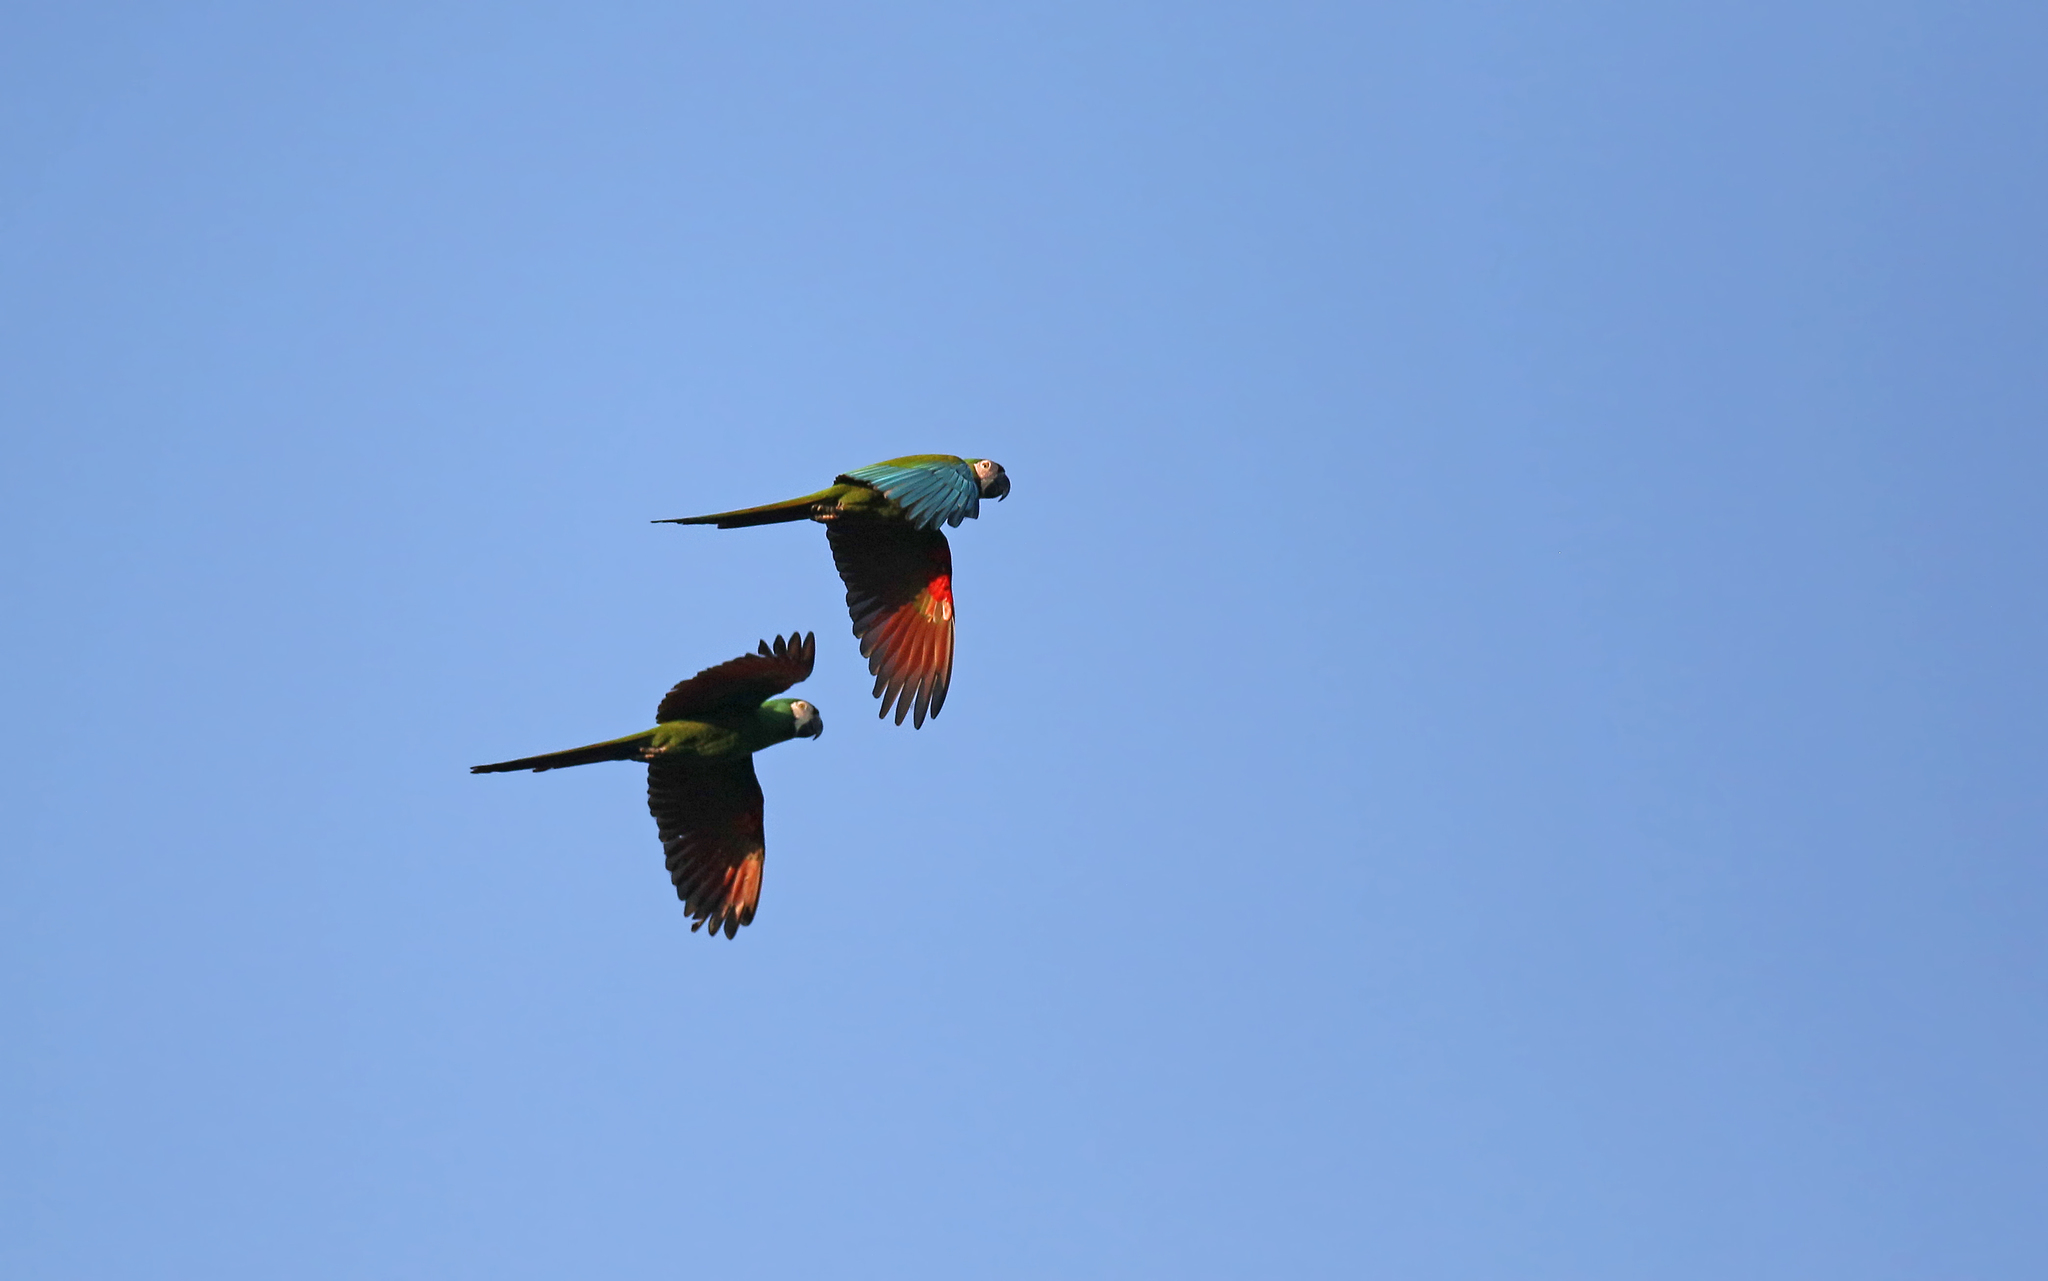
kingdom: Animalia
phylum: Chordata
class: Aves
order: Psittaciformes
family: Psittacidae
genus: Ara
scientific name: Ara severus
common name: Chestnut-fronted macaw
